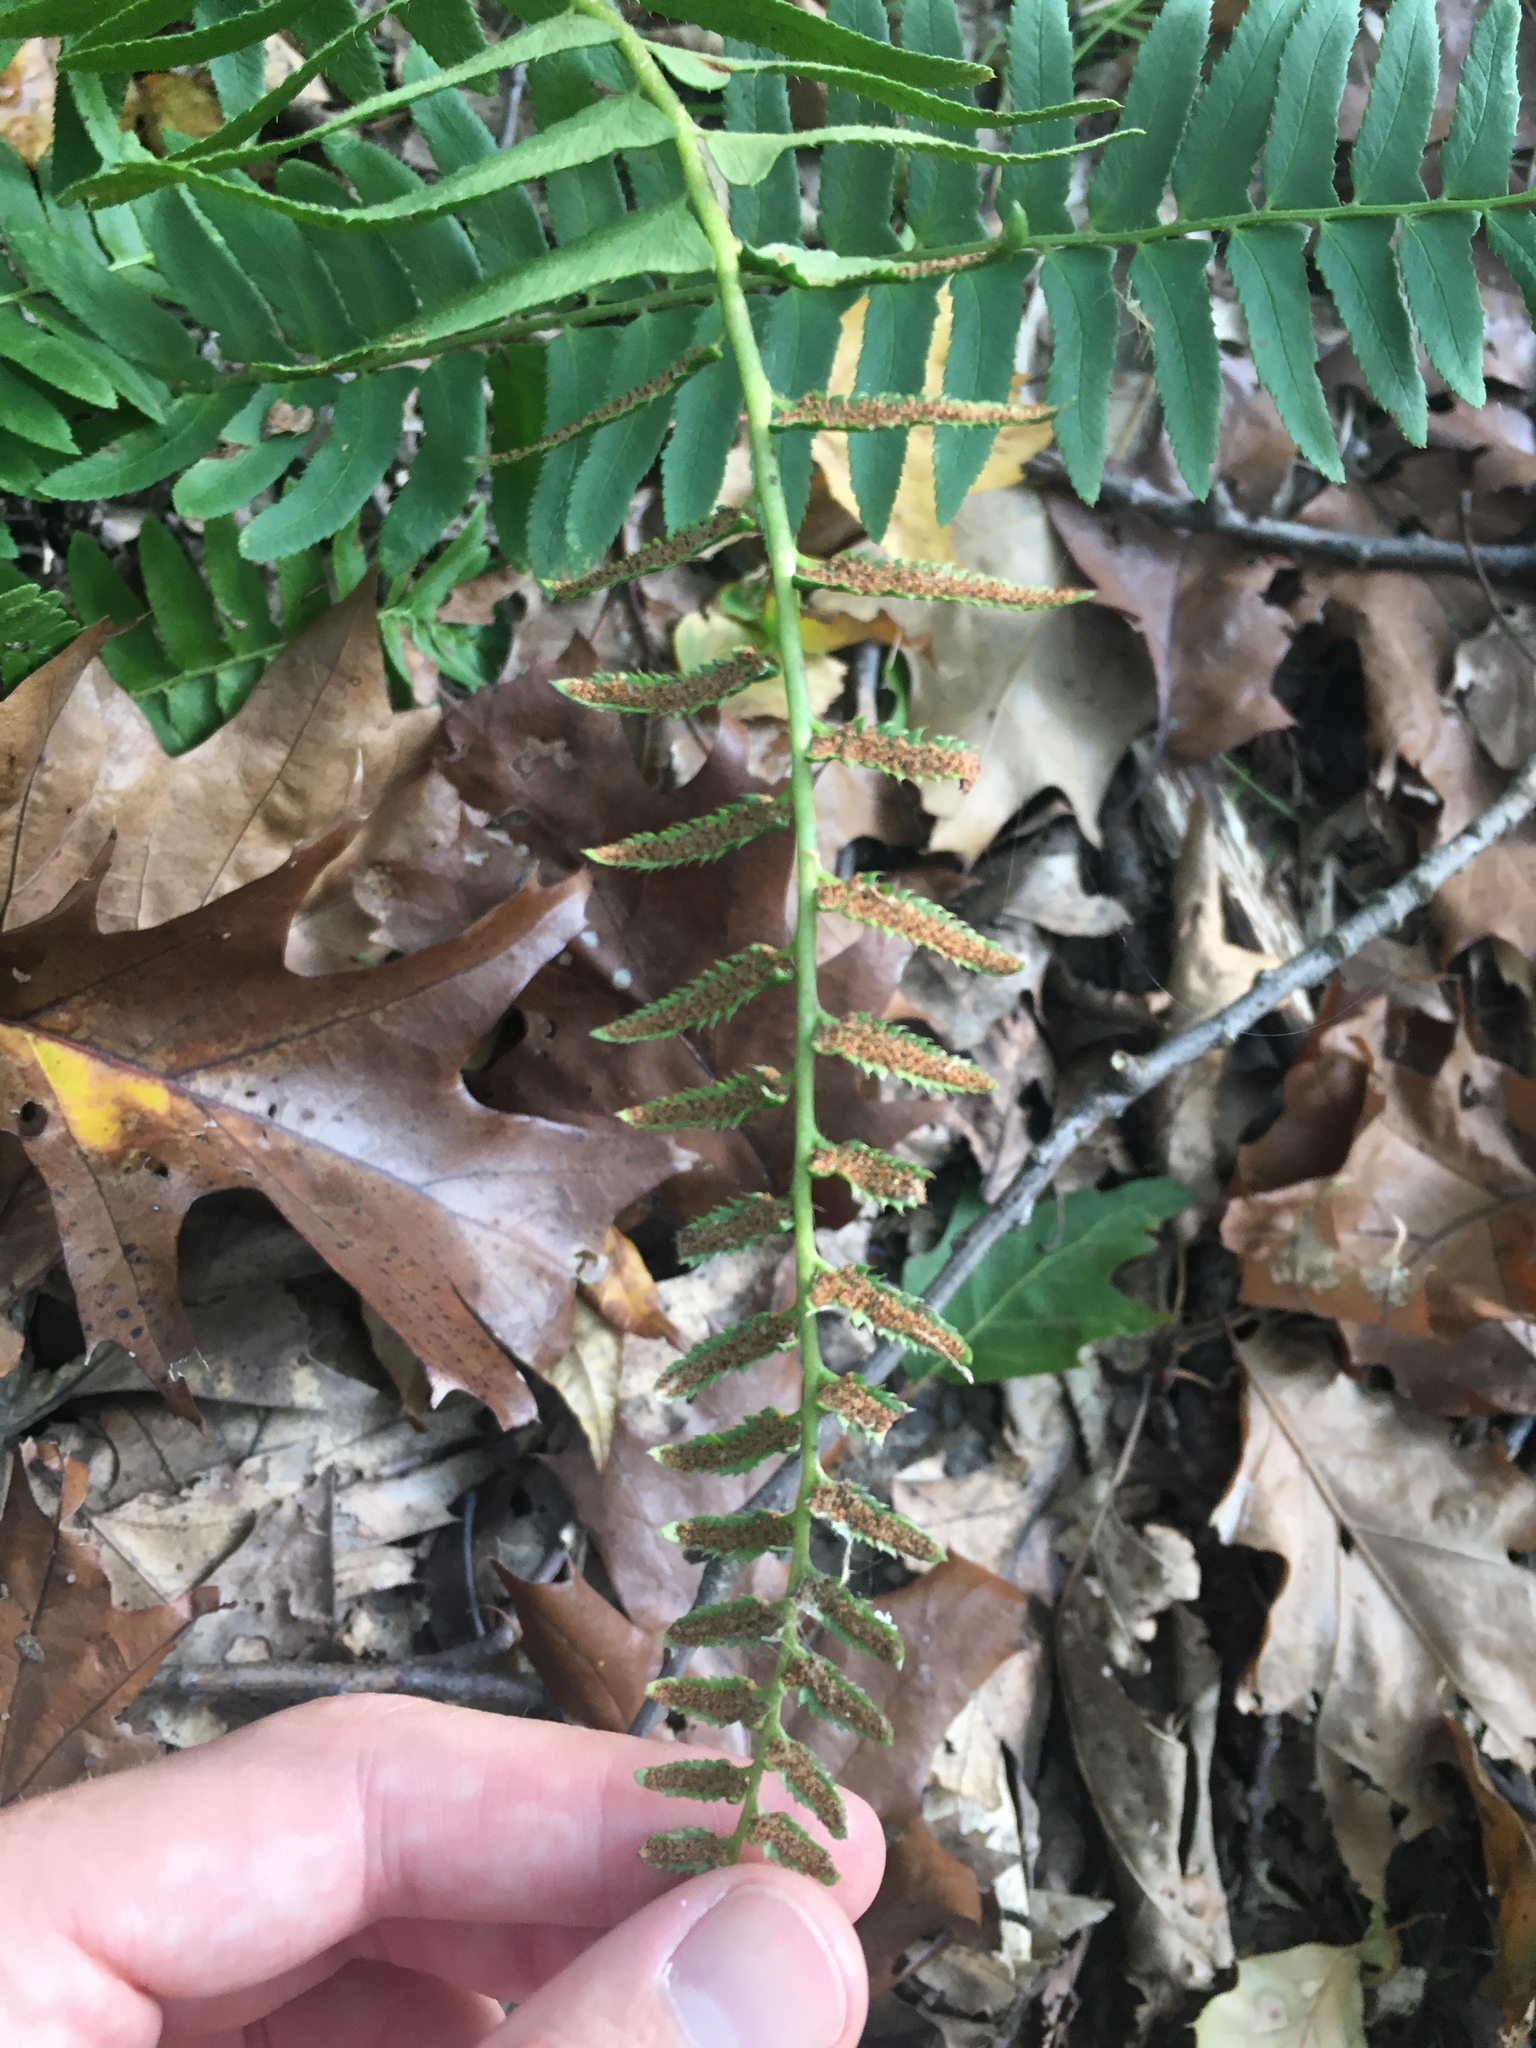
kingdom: Plantae
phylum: Tracheophyta
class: Polypodiopsida
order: Polypodiales
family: Dryopteridaceae
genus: Polystichum
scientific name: Polystichum acrostichoides
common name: Christmas fern
